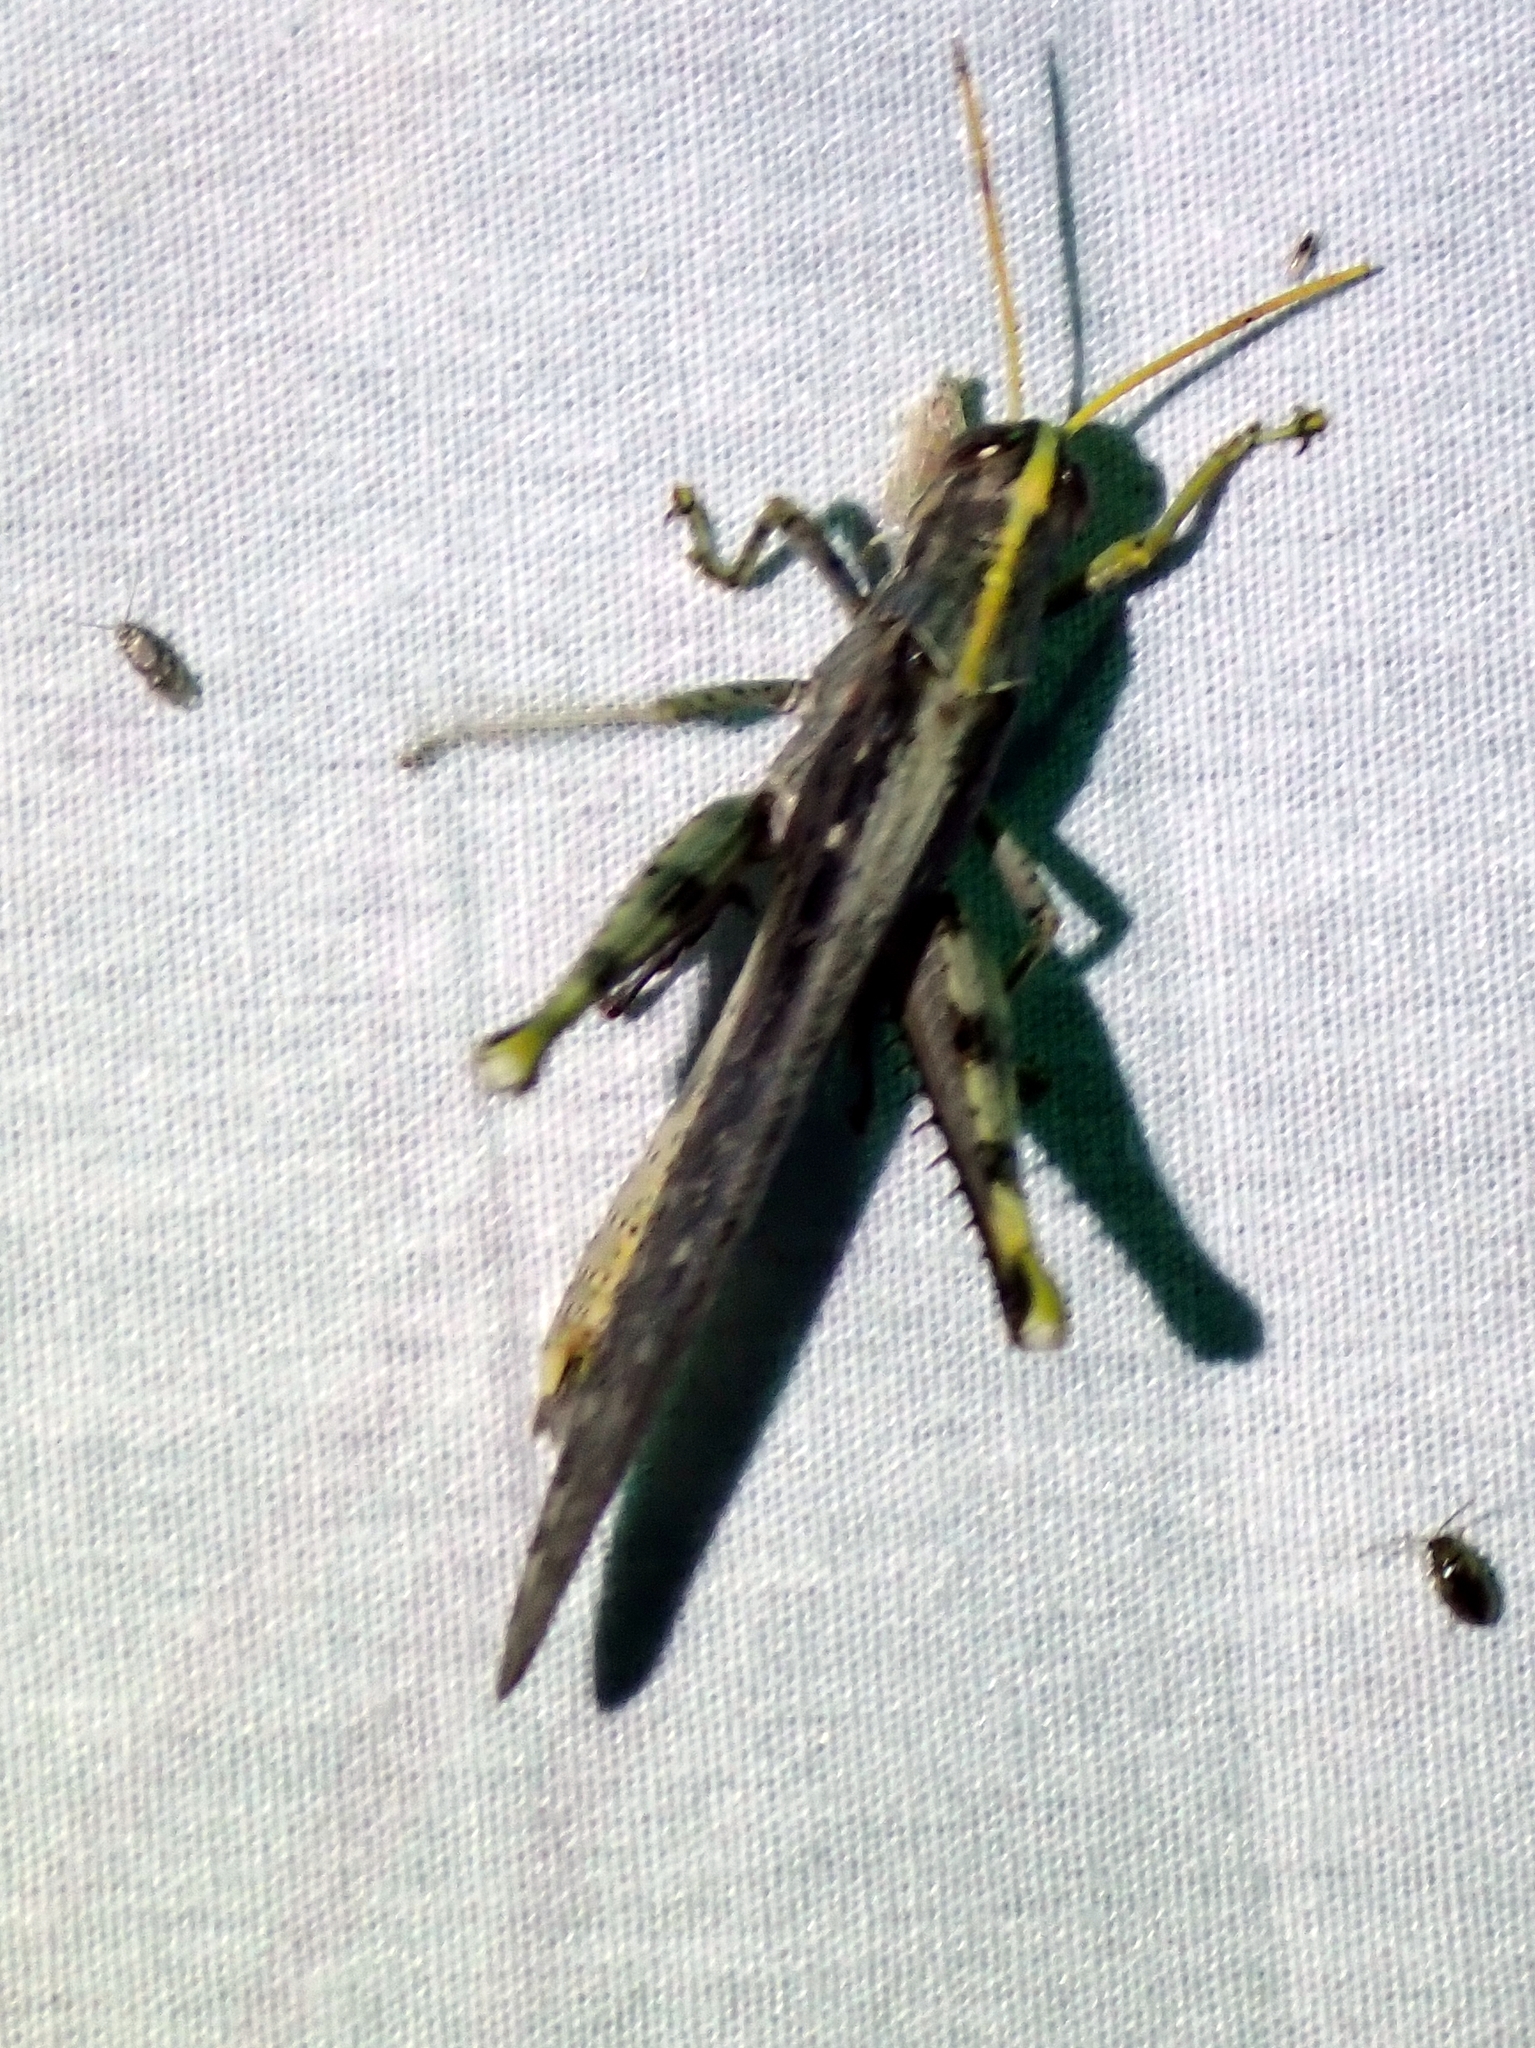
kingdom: Animalia
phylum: Arthropoda
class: Insecta
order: Orthoptera
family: Acrididae
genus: Schistocerca
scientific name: Schistocerca nitens
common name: Vagrant grasshopper
